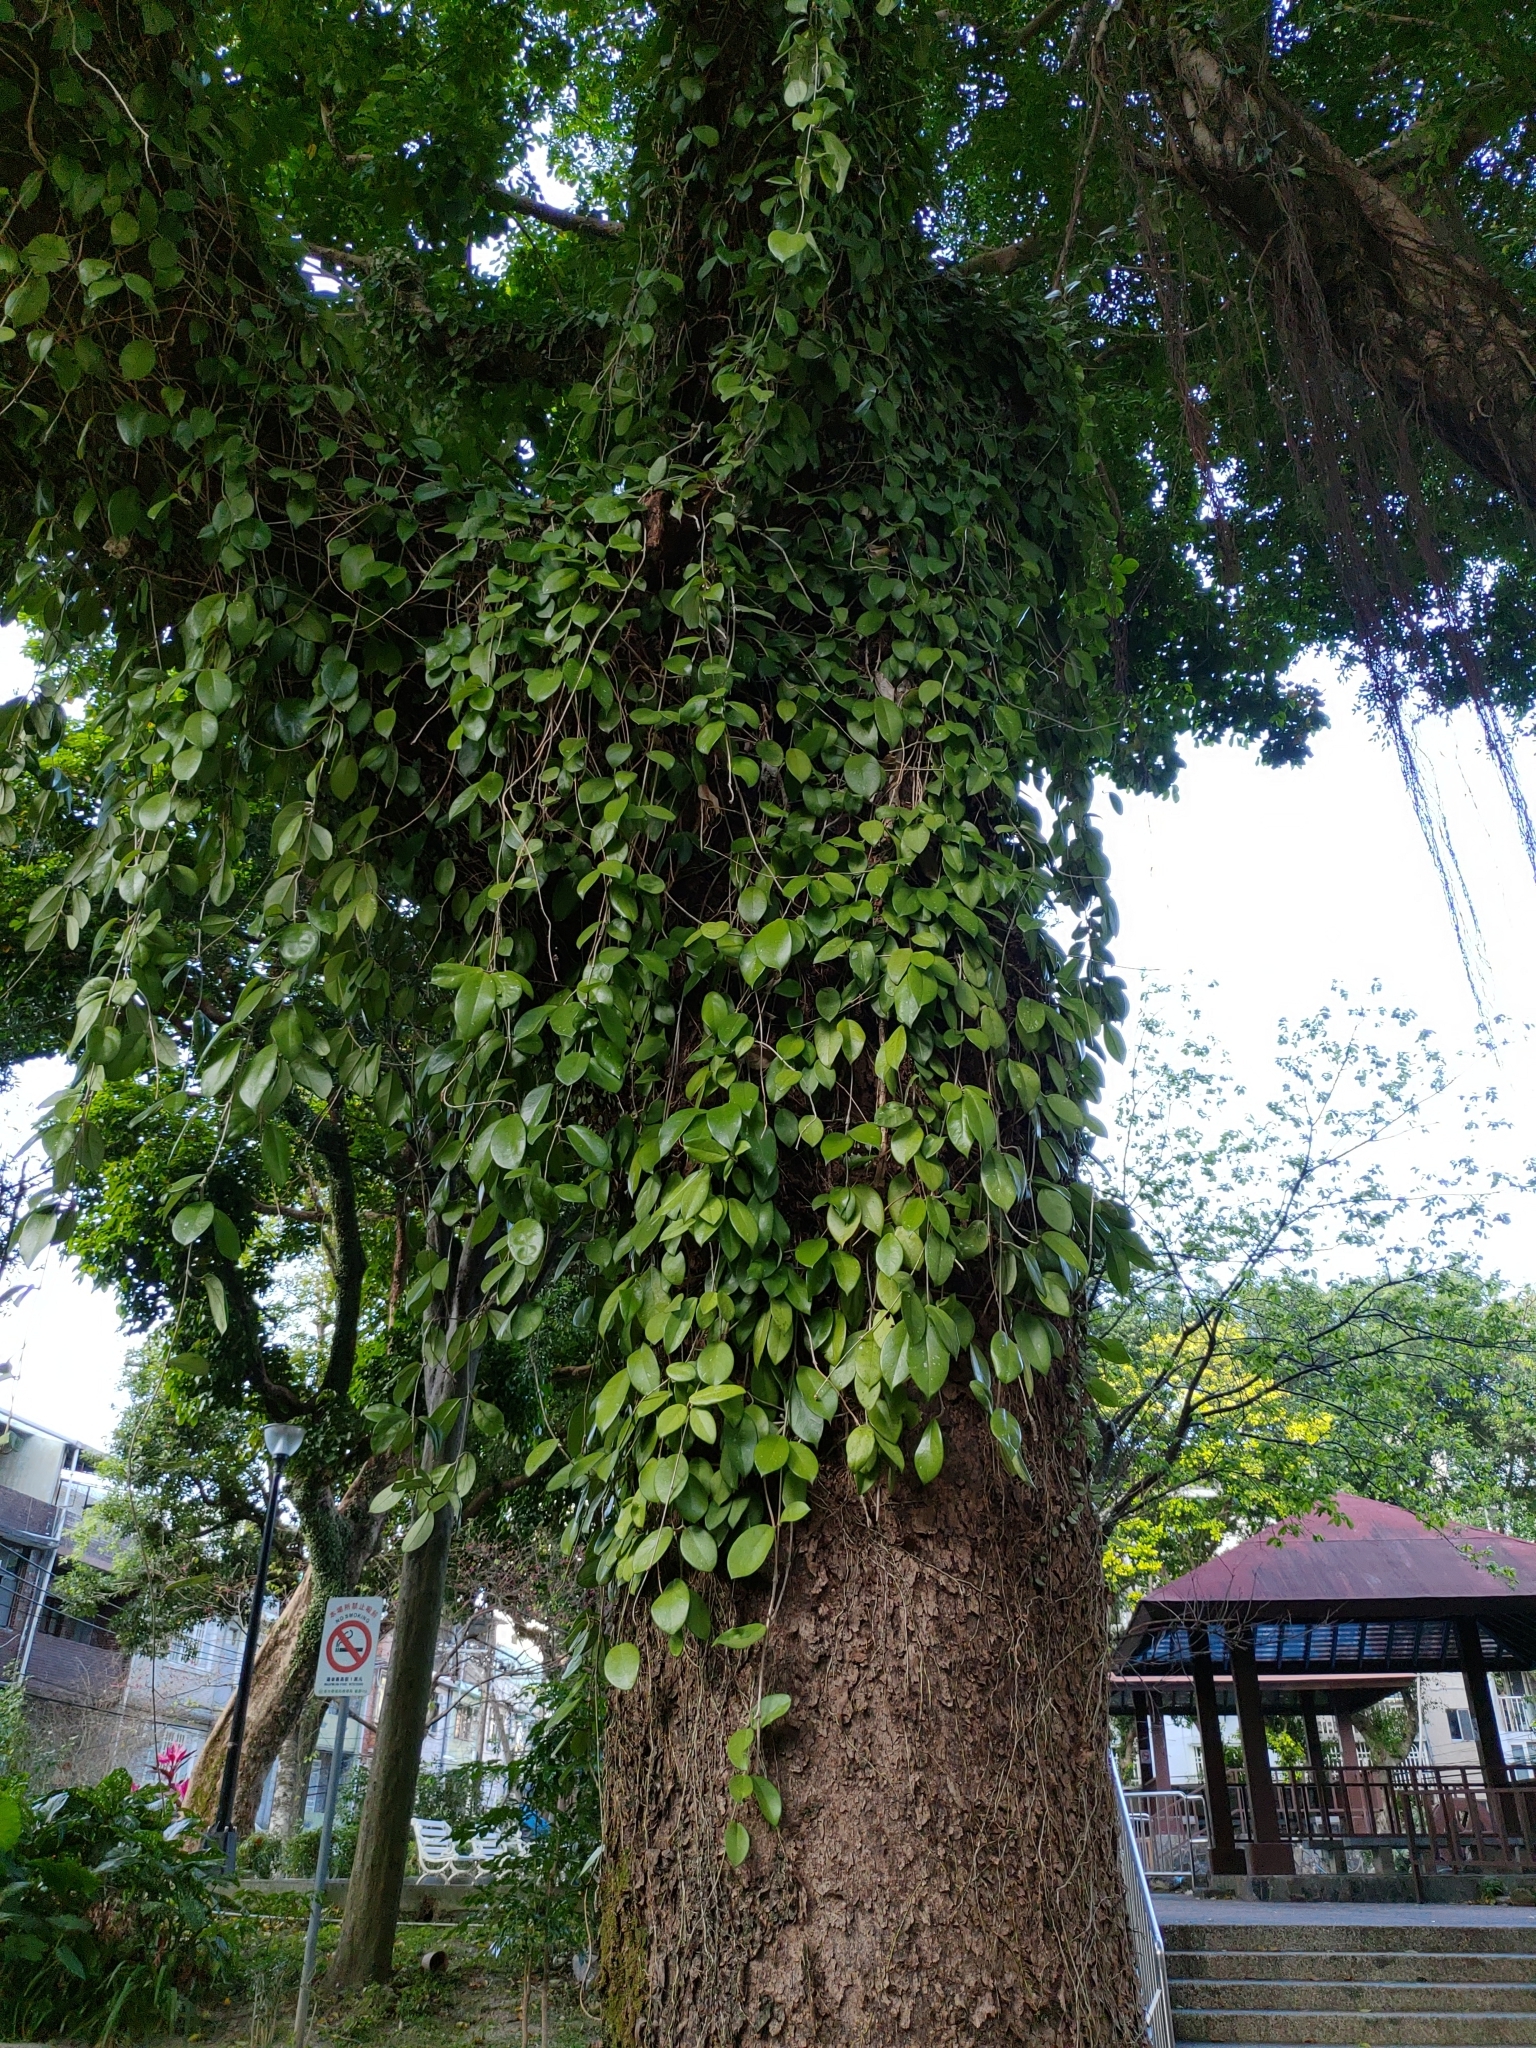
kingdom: Plantae
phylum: Tracheophyta
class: Magnoliopsida
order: Gentianales
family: Apocynaceae
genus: Hoya
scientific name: Hoya carnosa
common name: Honeyplant
